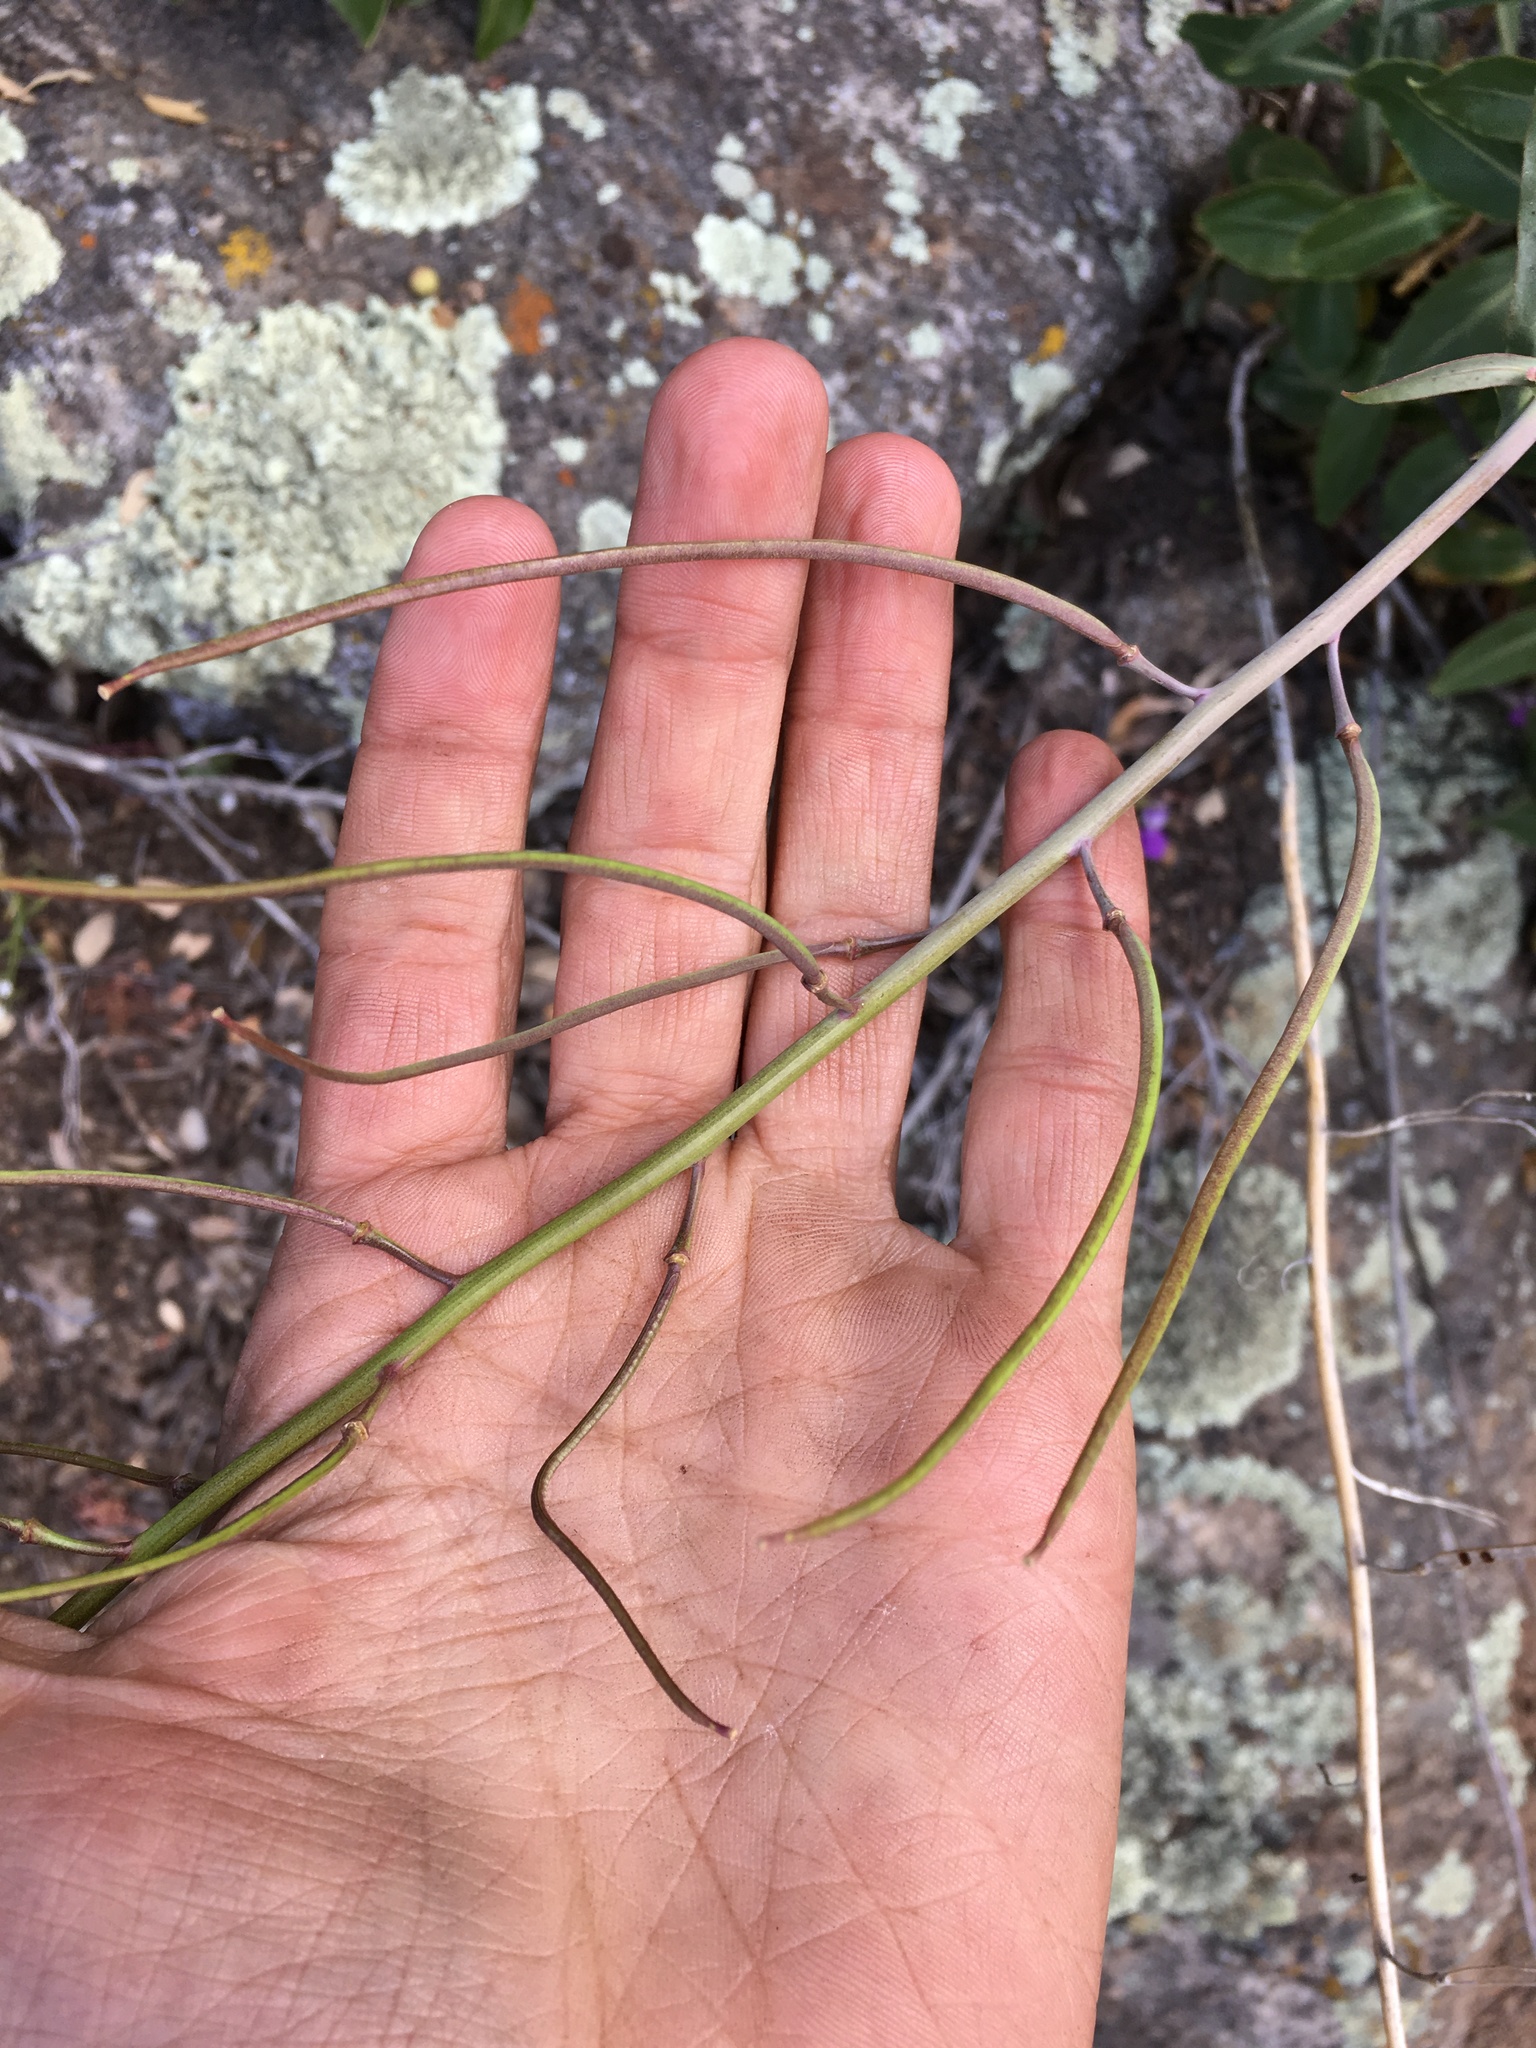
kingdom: Plantae
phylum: Tracheophyta
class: Magnoliopsida
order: Brassicales
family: Brassicaceae
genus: Streptanthus
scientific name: Streptanthus campestris
